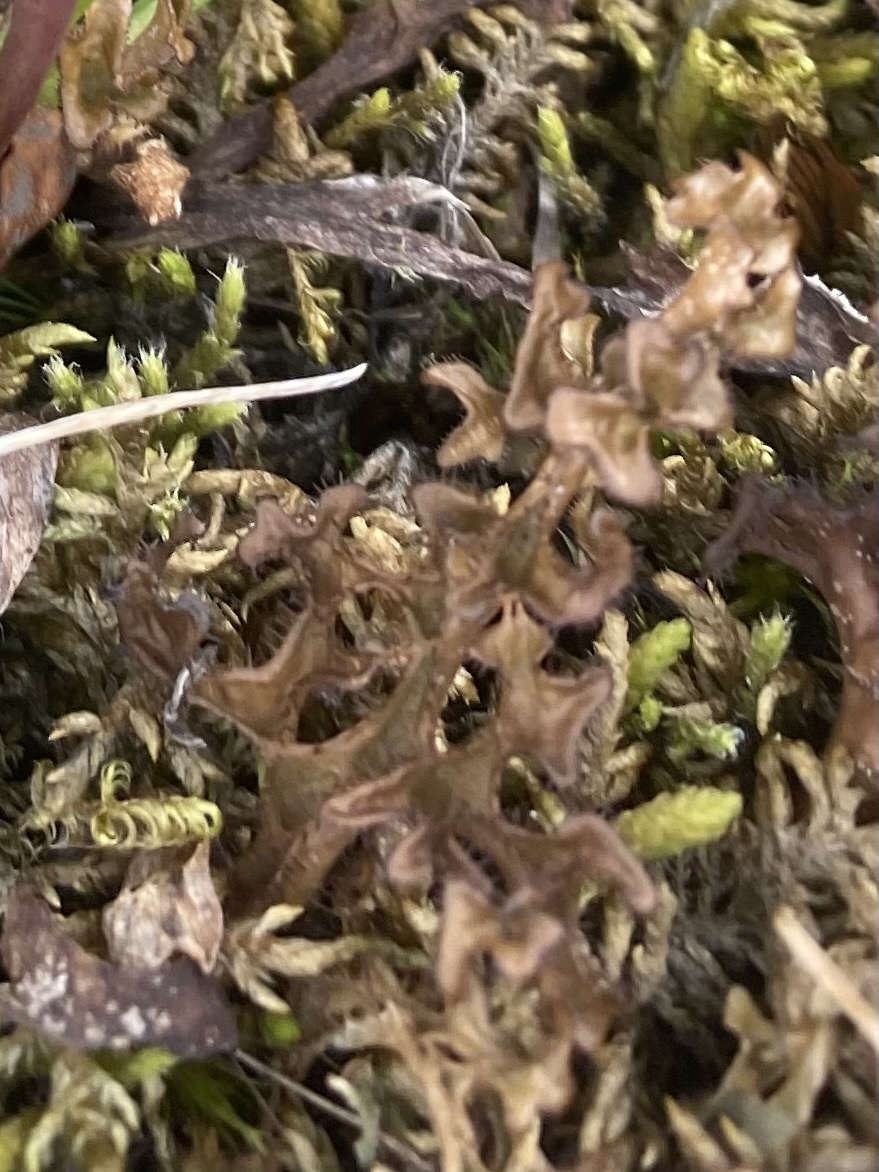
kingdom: Fungi
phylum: Ascomycota
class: Lecanoromycetes
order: Lecanorales
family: Parmeliaceae
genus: Cetraria
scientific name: Cetraria islandica
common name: Iceland lichen
